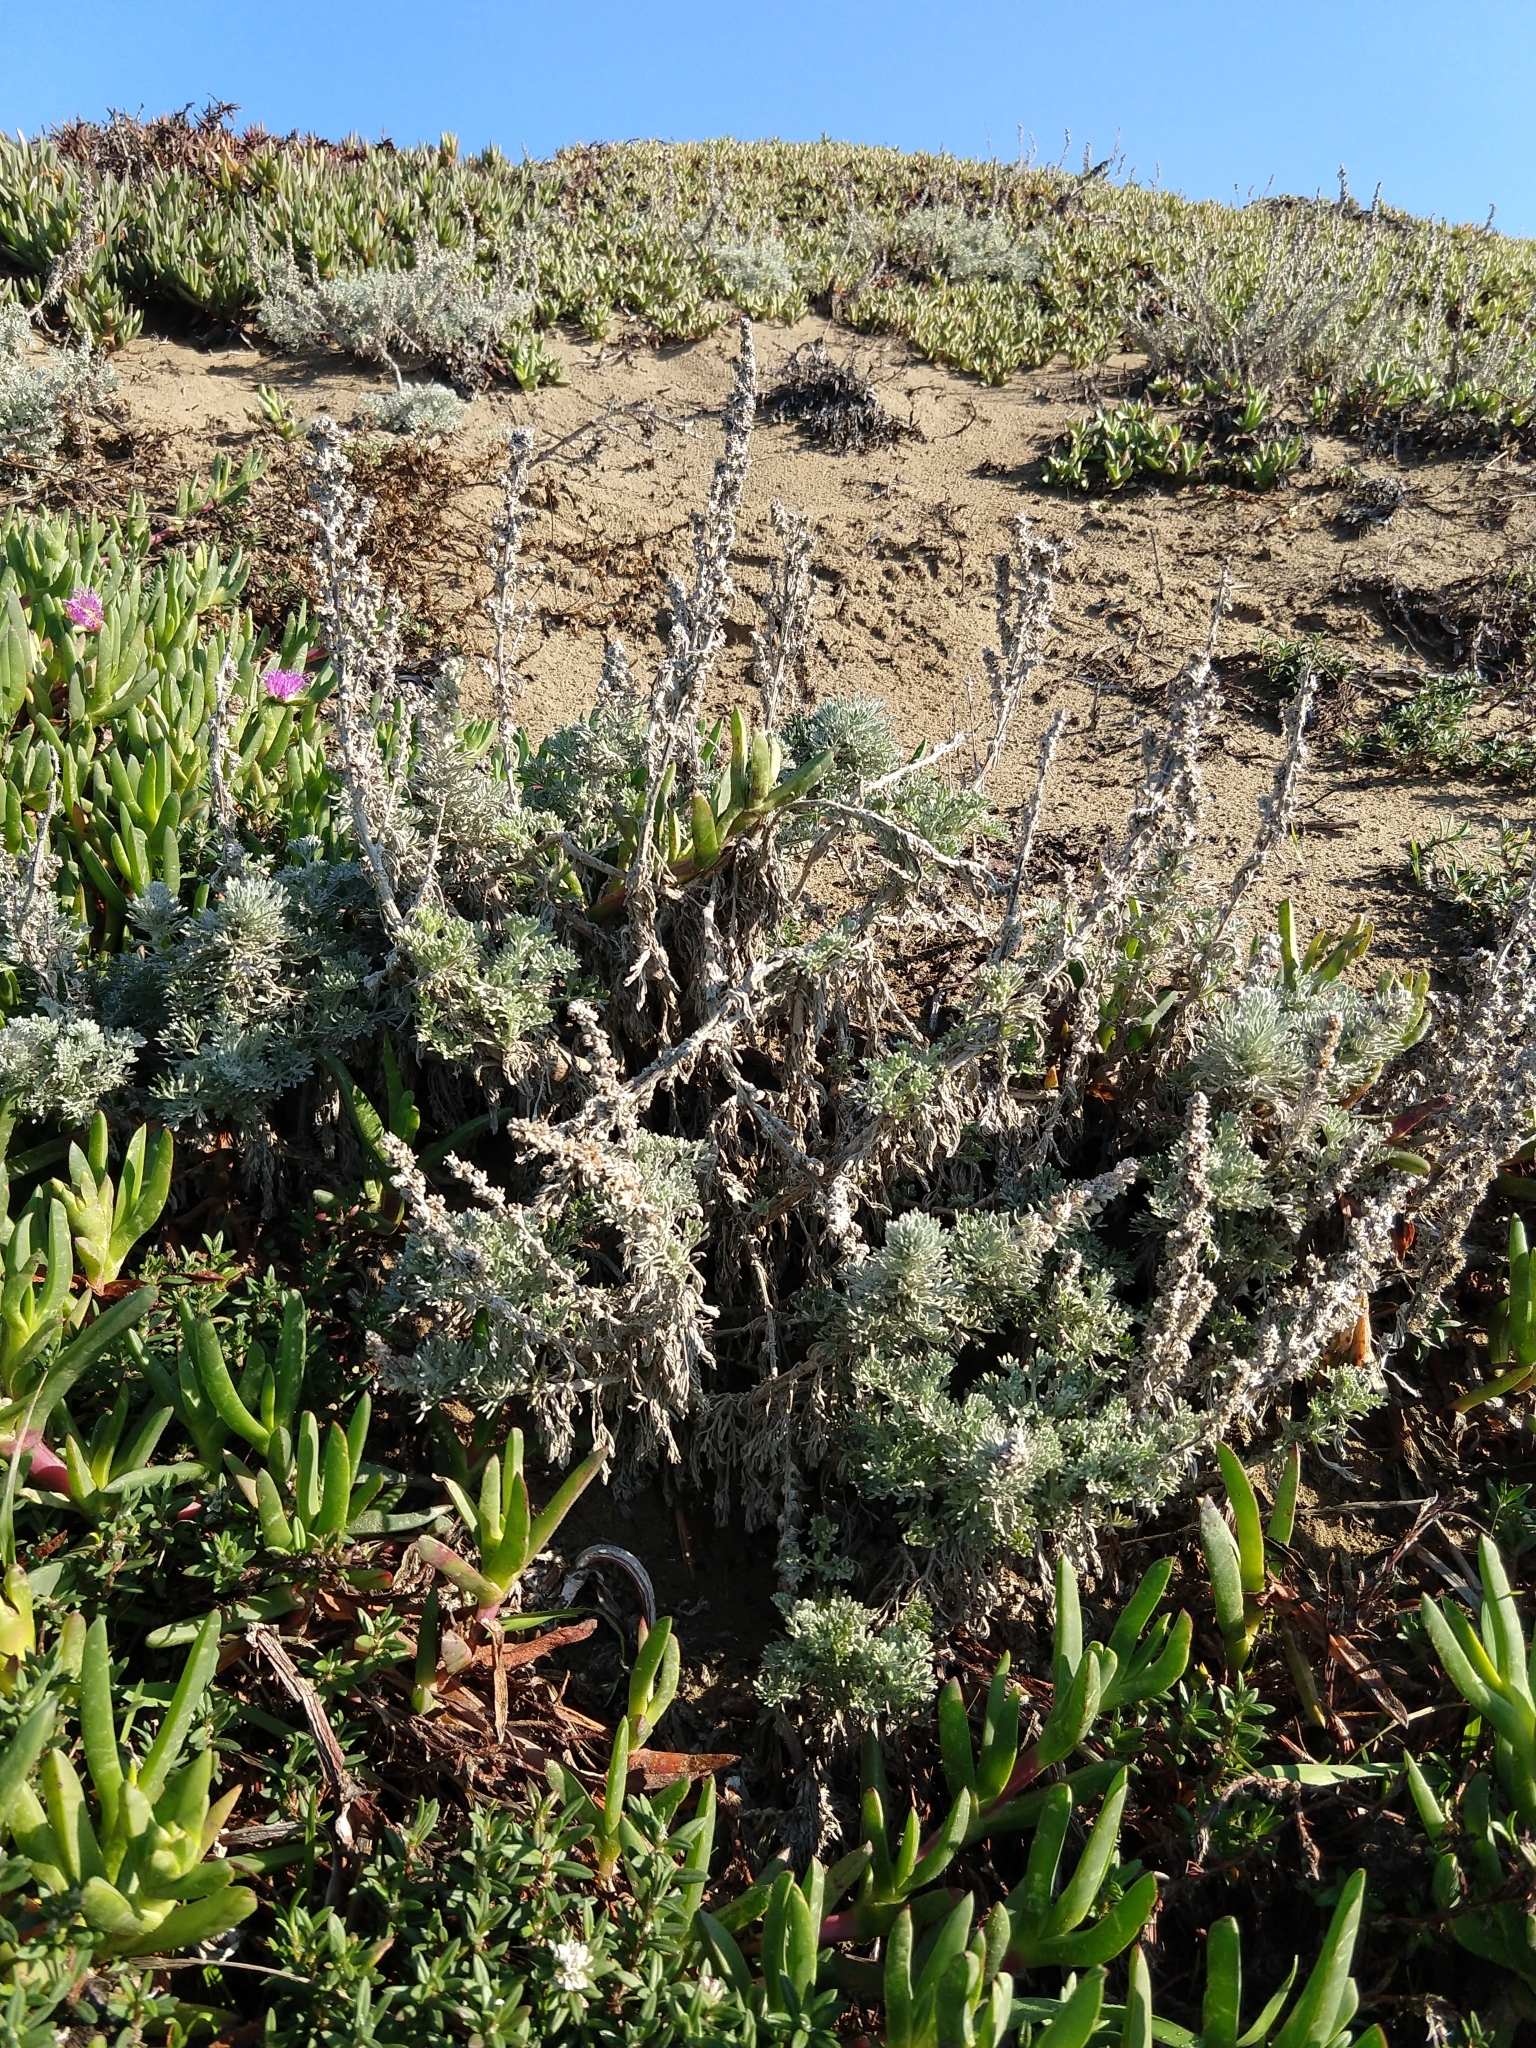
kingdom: Plantae
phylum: Tracheophyta
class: Magnoliopsida
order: Asterales
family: Asteraceae
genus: Artemisia
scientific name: Artemisia pycnocephala
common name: Coastal sagewort
